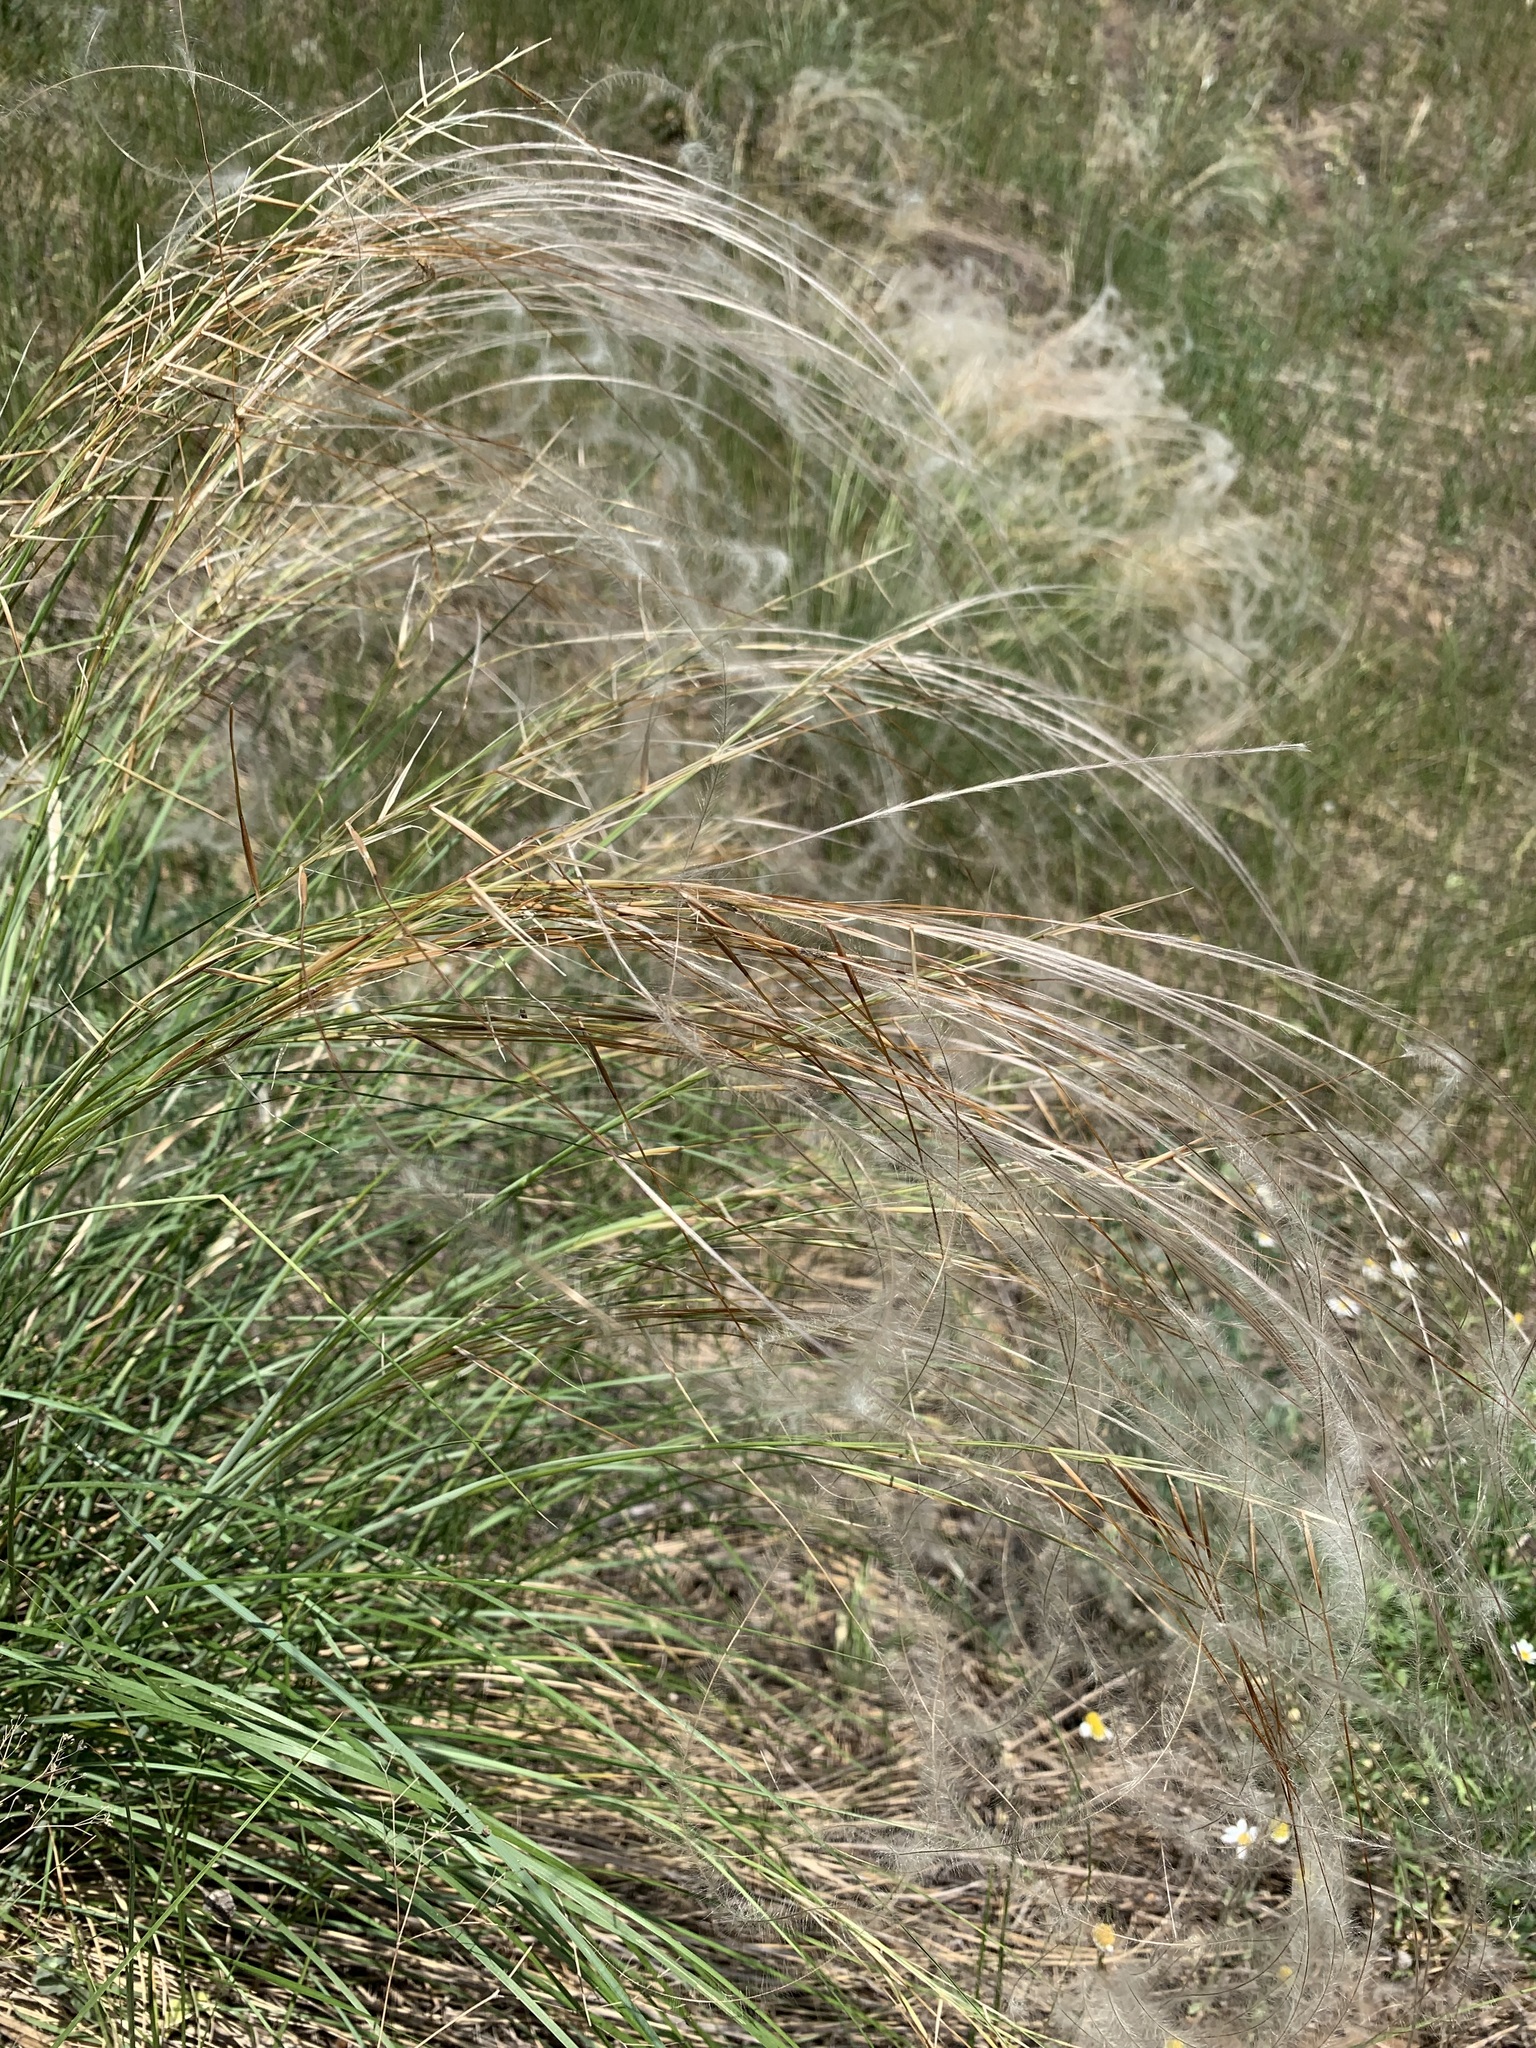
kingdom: Plantae
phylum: Tracheophyta
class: Liliopsida
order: Poales
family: Poaceae
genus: Stipa
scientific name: Stipa pennata
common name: European feather grass
